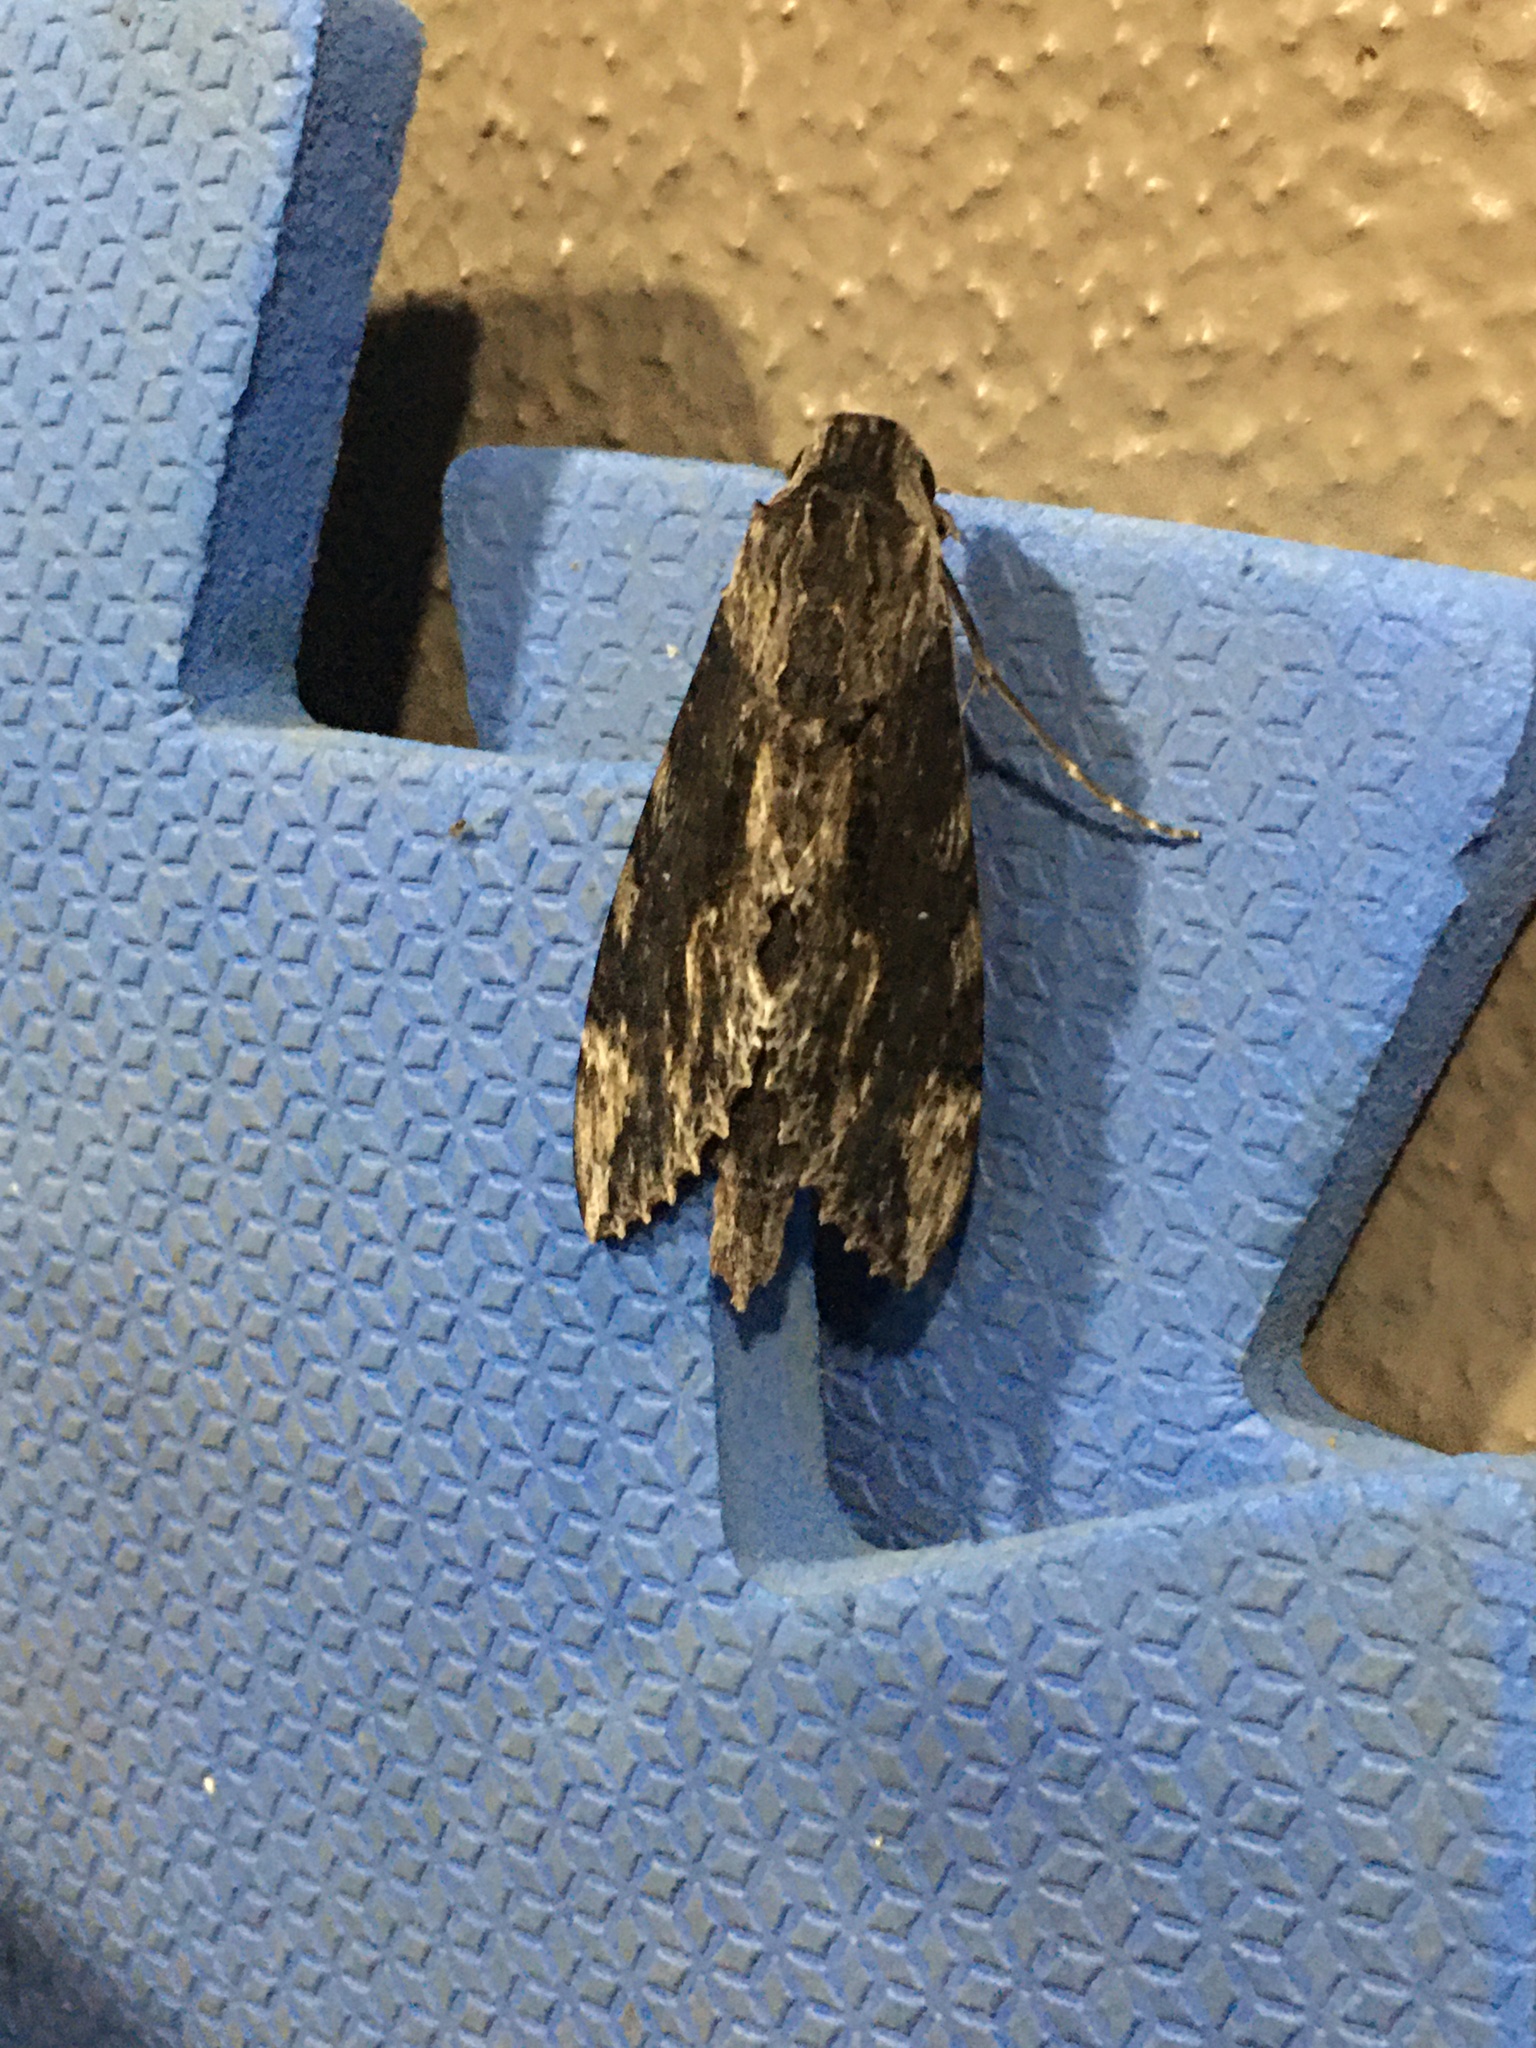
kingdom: Animalia
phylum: Arthropoda
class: Insecta
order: Lepidoptera
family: Sphingidae
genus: Erinnyis
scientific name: Erinnyis oenotrus
